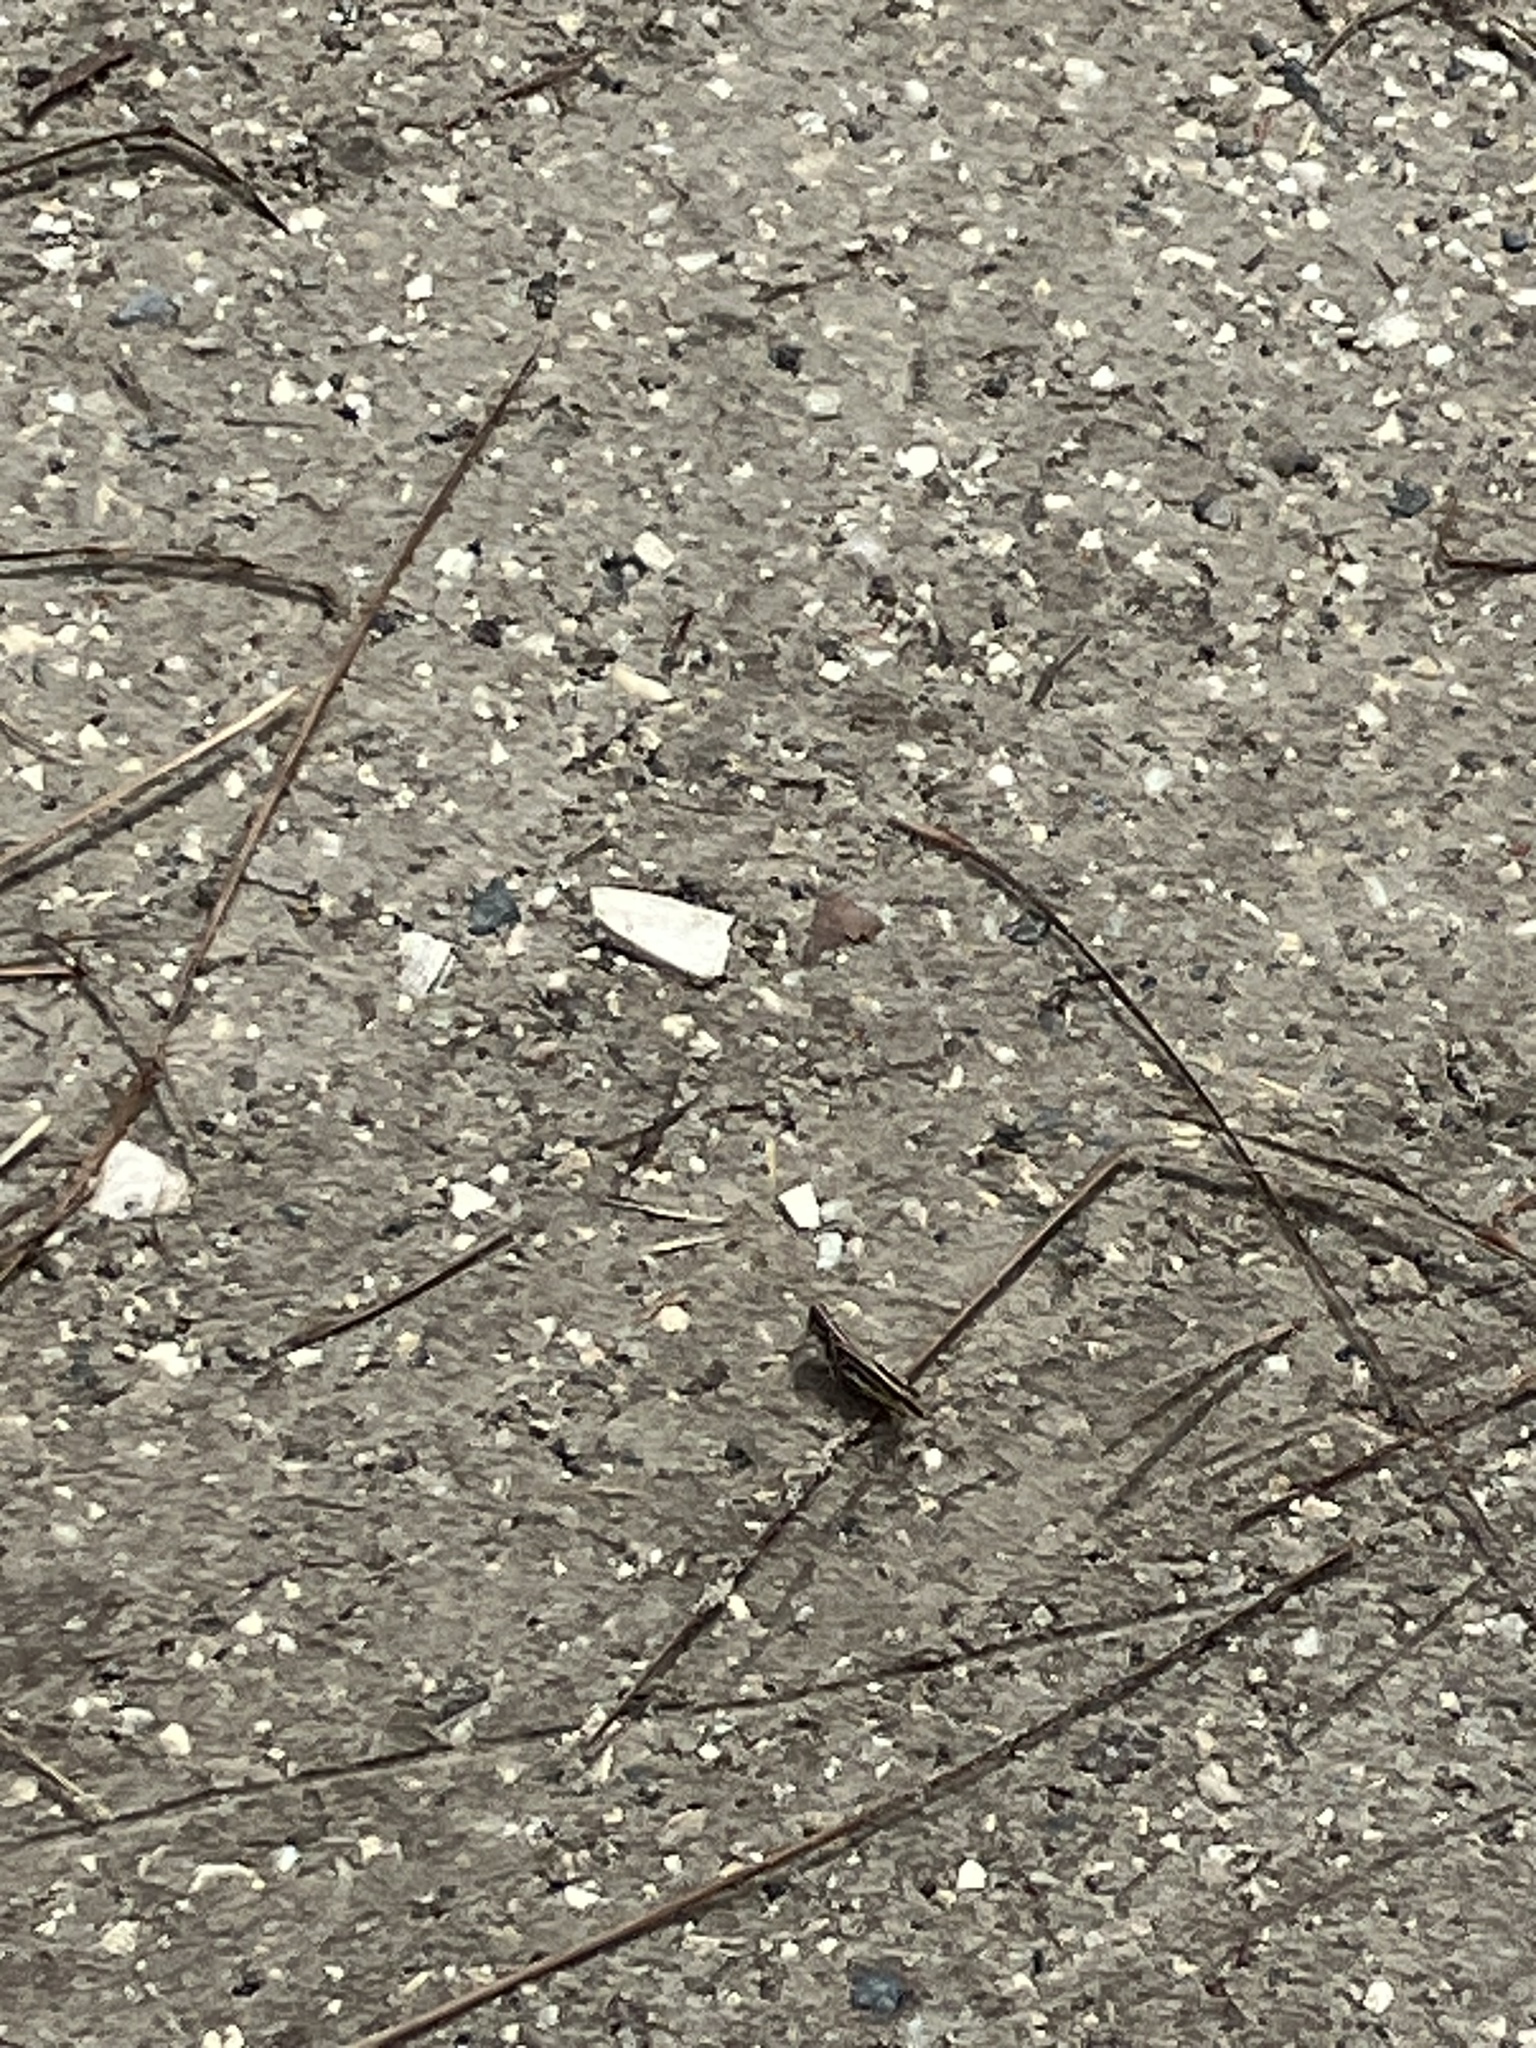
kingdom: Animalia
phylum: Arthropoda
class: Insecta
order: Orthoptera
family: Acrididae
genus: Orphulella
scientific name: Orphulella pelidna
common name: Spotted-wing grasshopper
